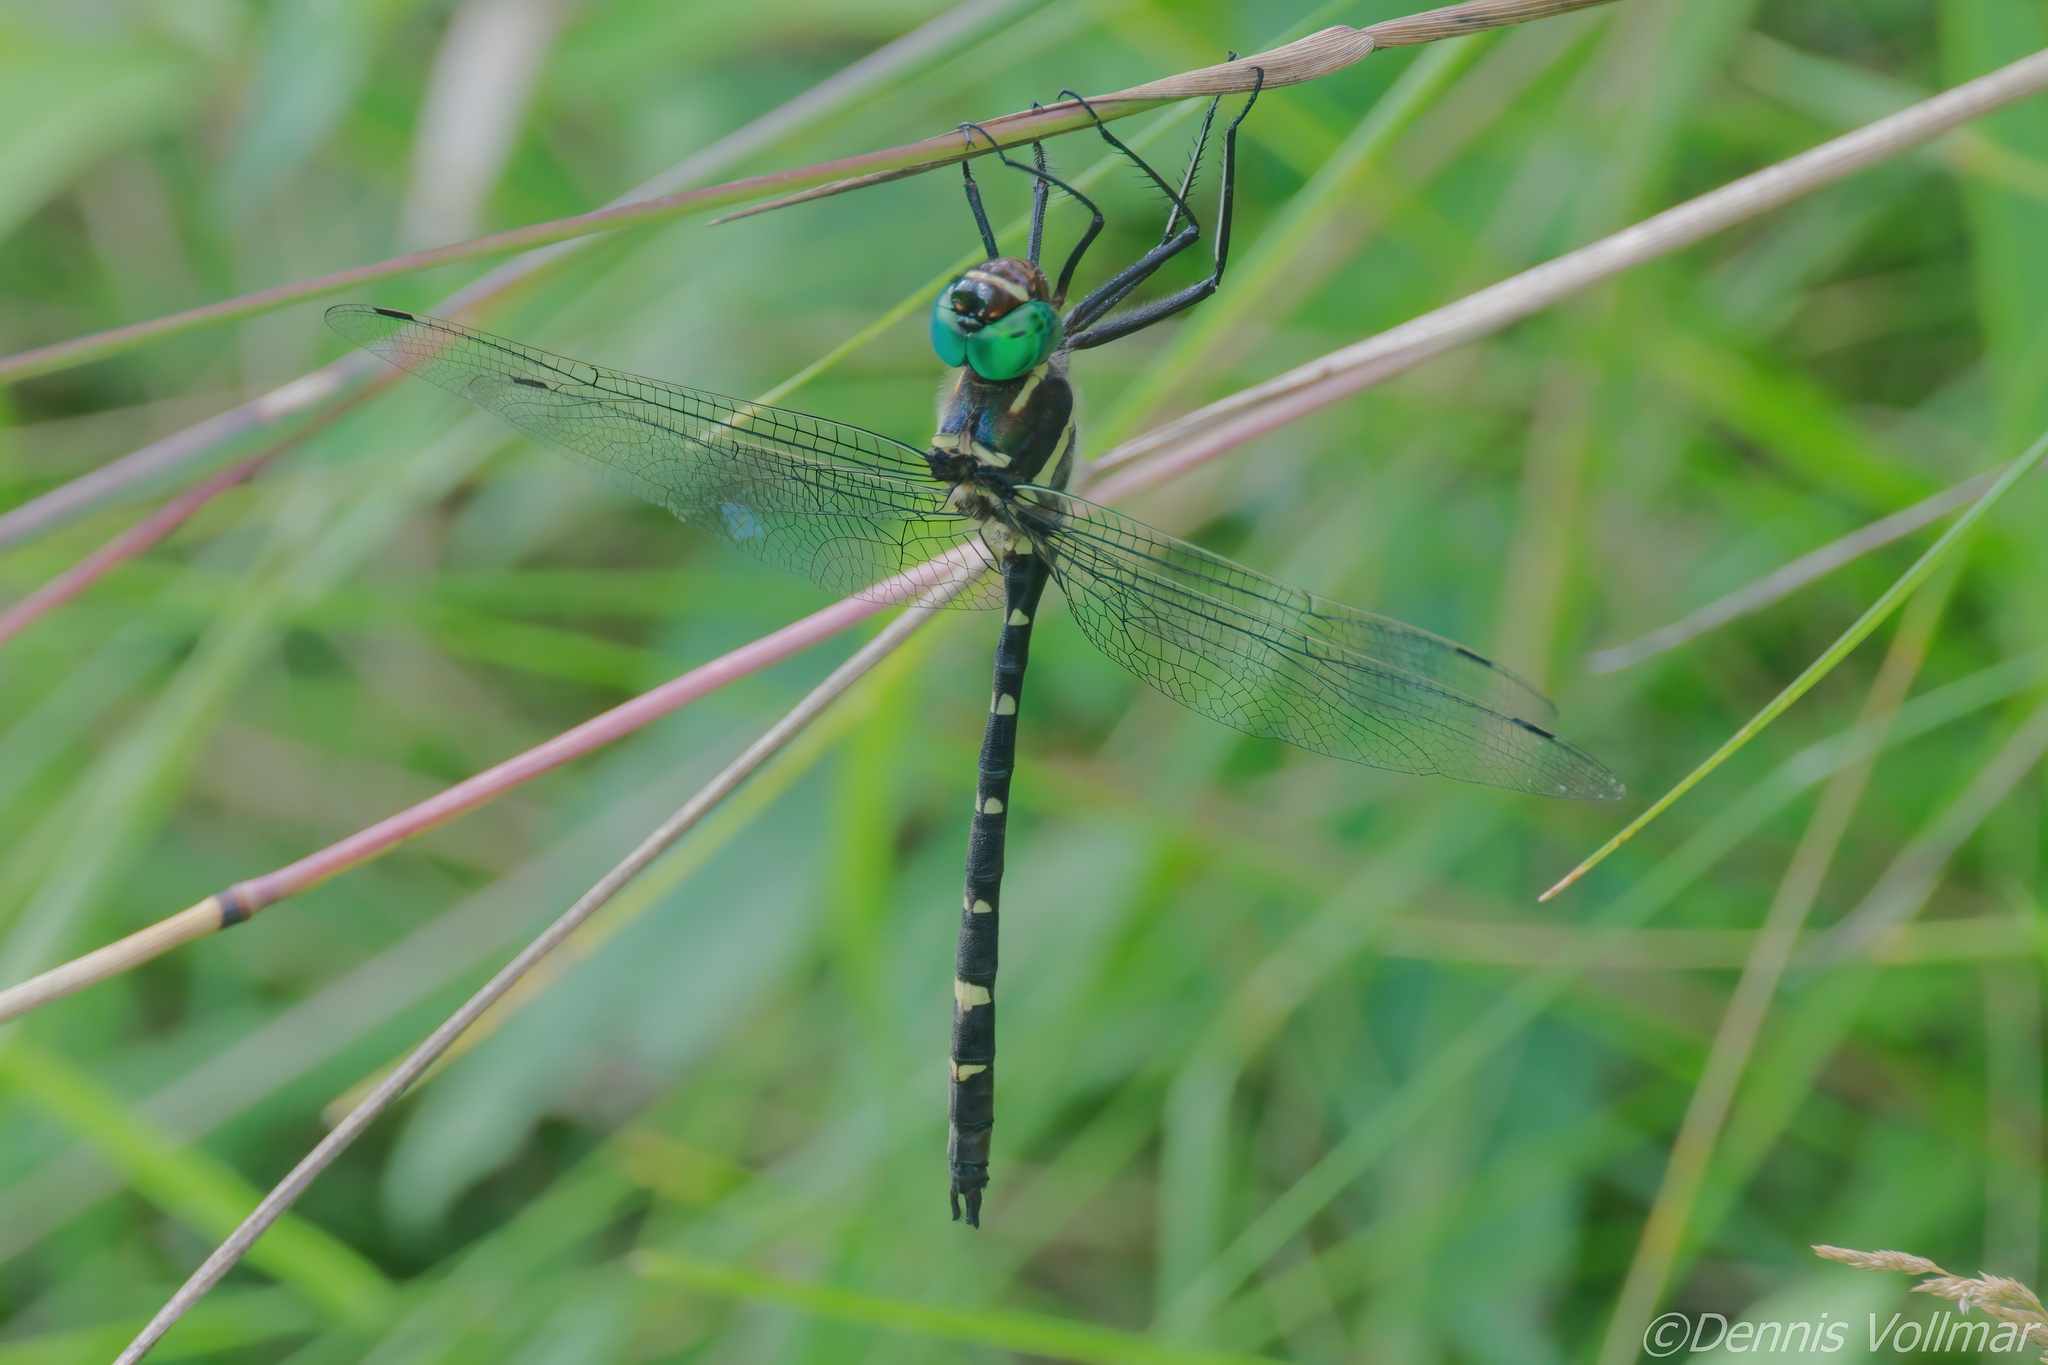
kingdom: Animalia
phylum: Arthropoda
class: Insecta
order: Odonata
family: Macromiidae
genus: Macromia
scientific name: Macromia
